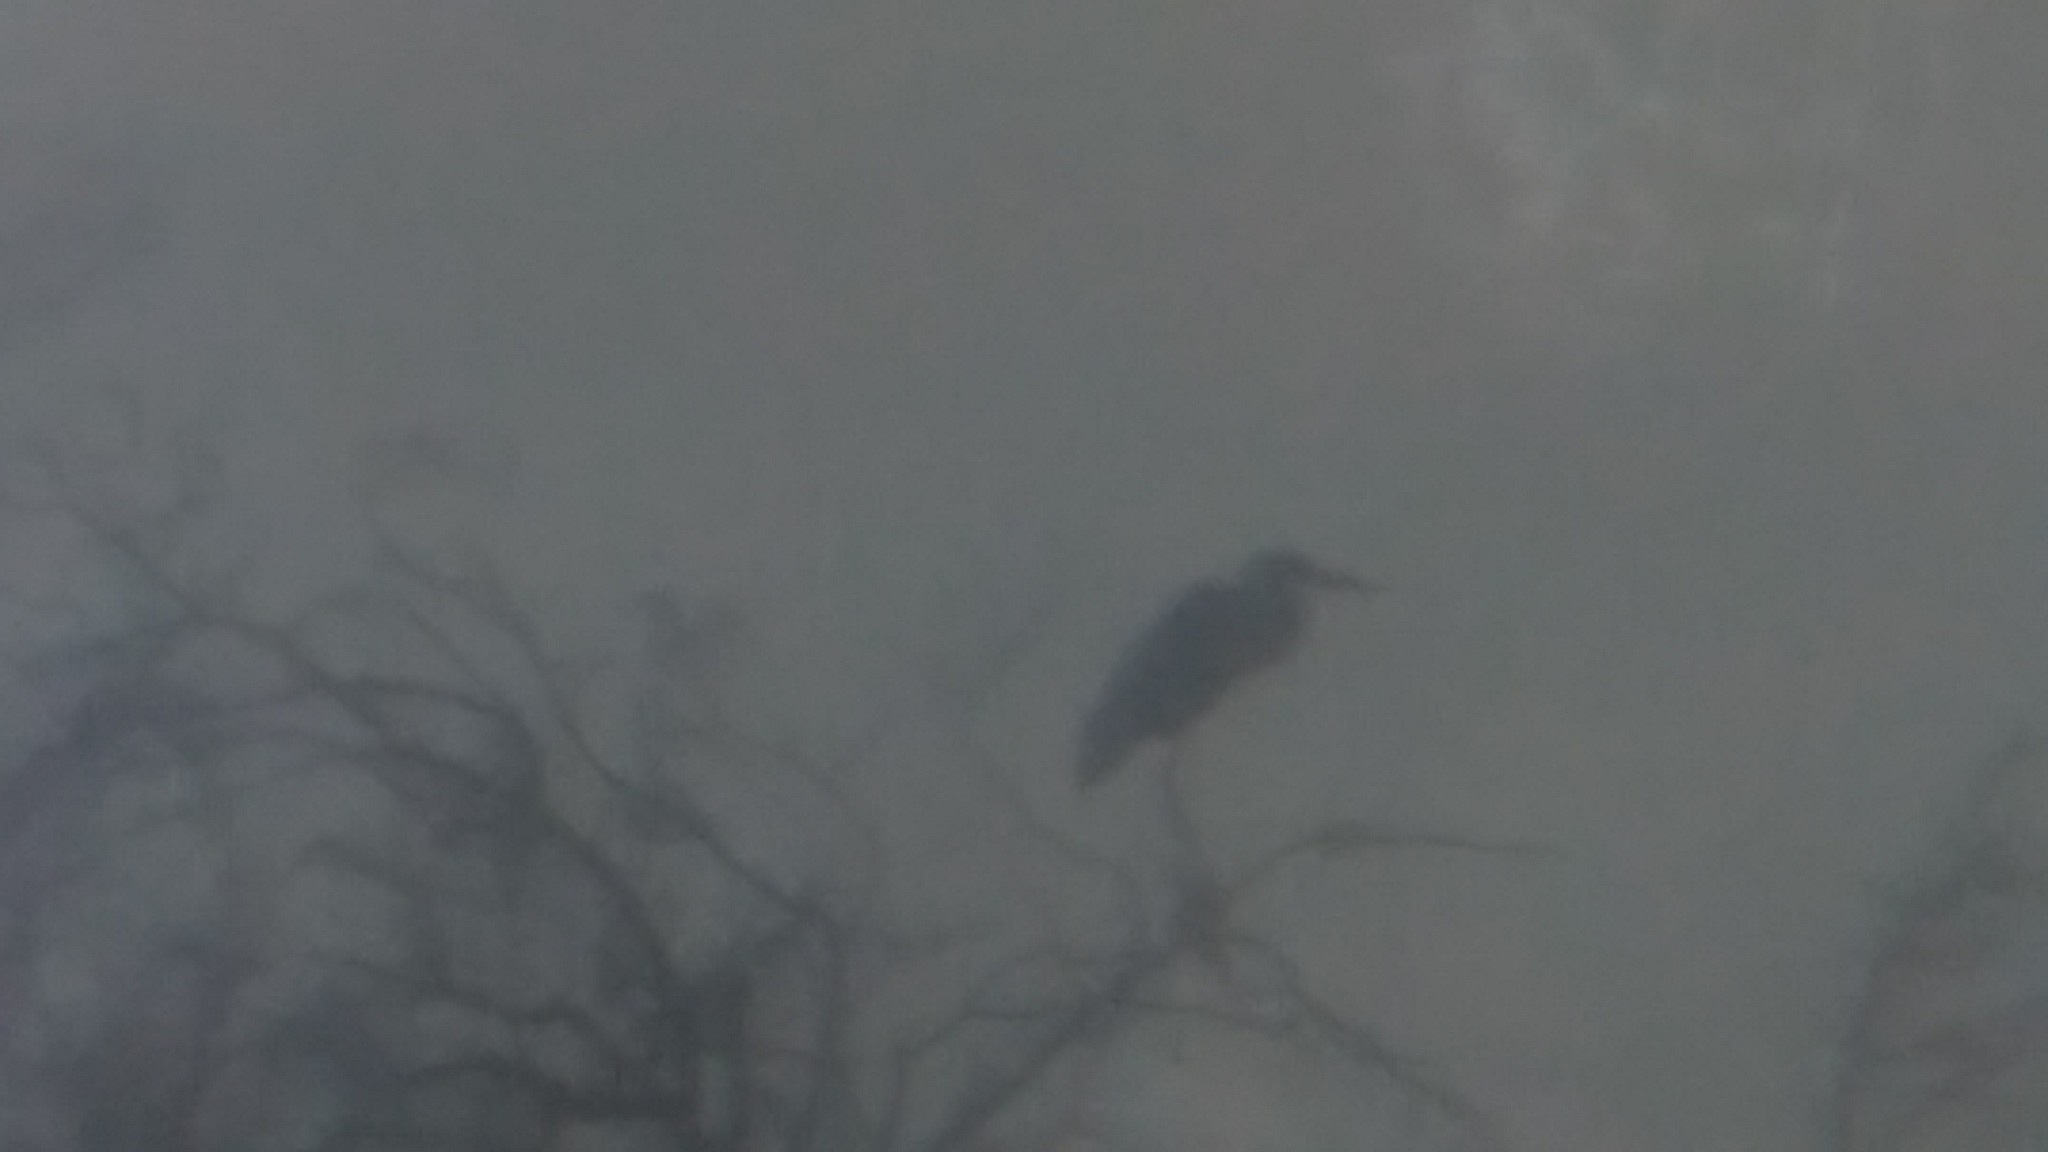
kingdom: Animalia
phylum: Chordata
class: Aves
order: Pelecaniformes
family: Ardeidae
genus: Ardea
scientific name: Ardea cocoi
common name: Cocoi heron
